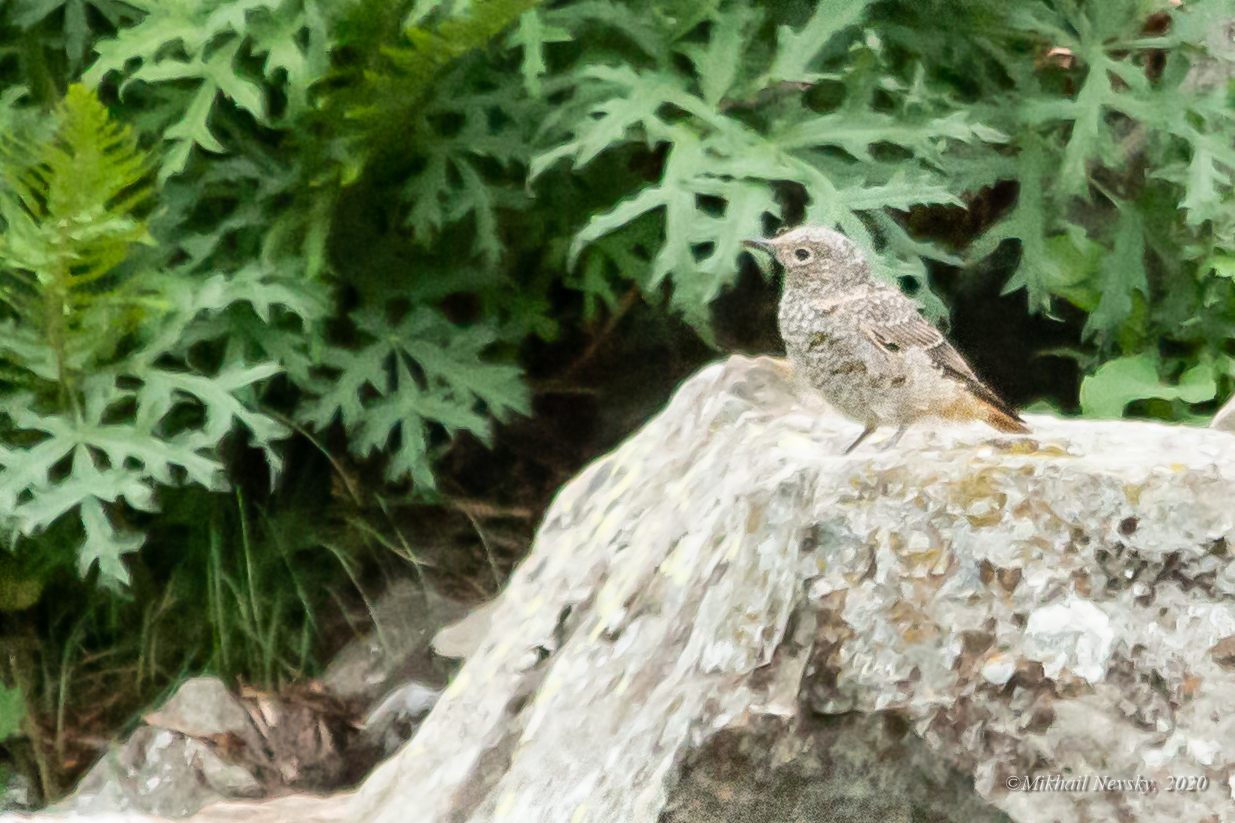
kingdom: Animalia
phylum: Chordata
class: Aves
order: Passeriformes
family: Muscicapidae
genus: Monticola
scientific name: Monticola saxatilis
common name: Rufous-tailed rock thrush
